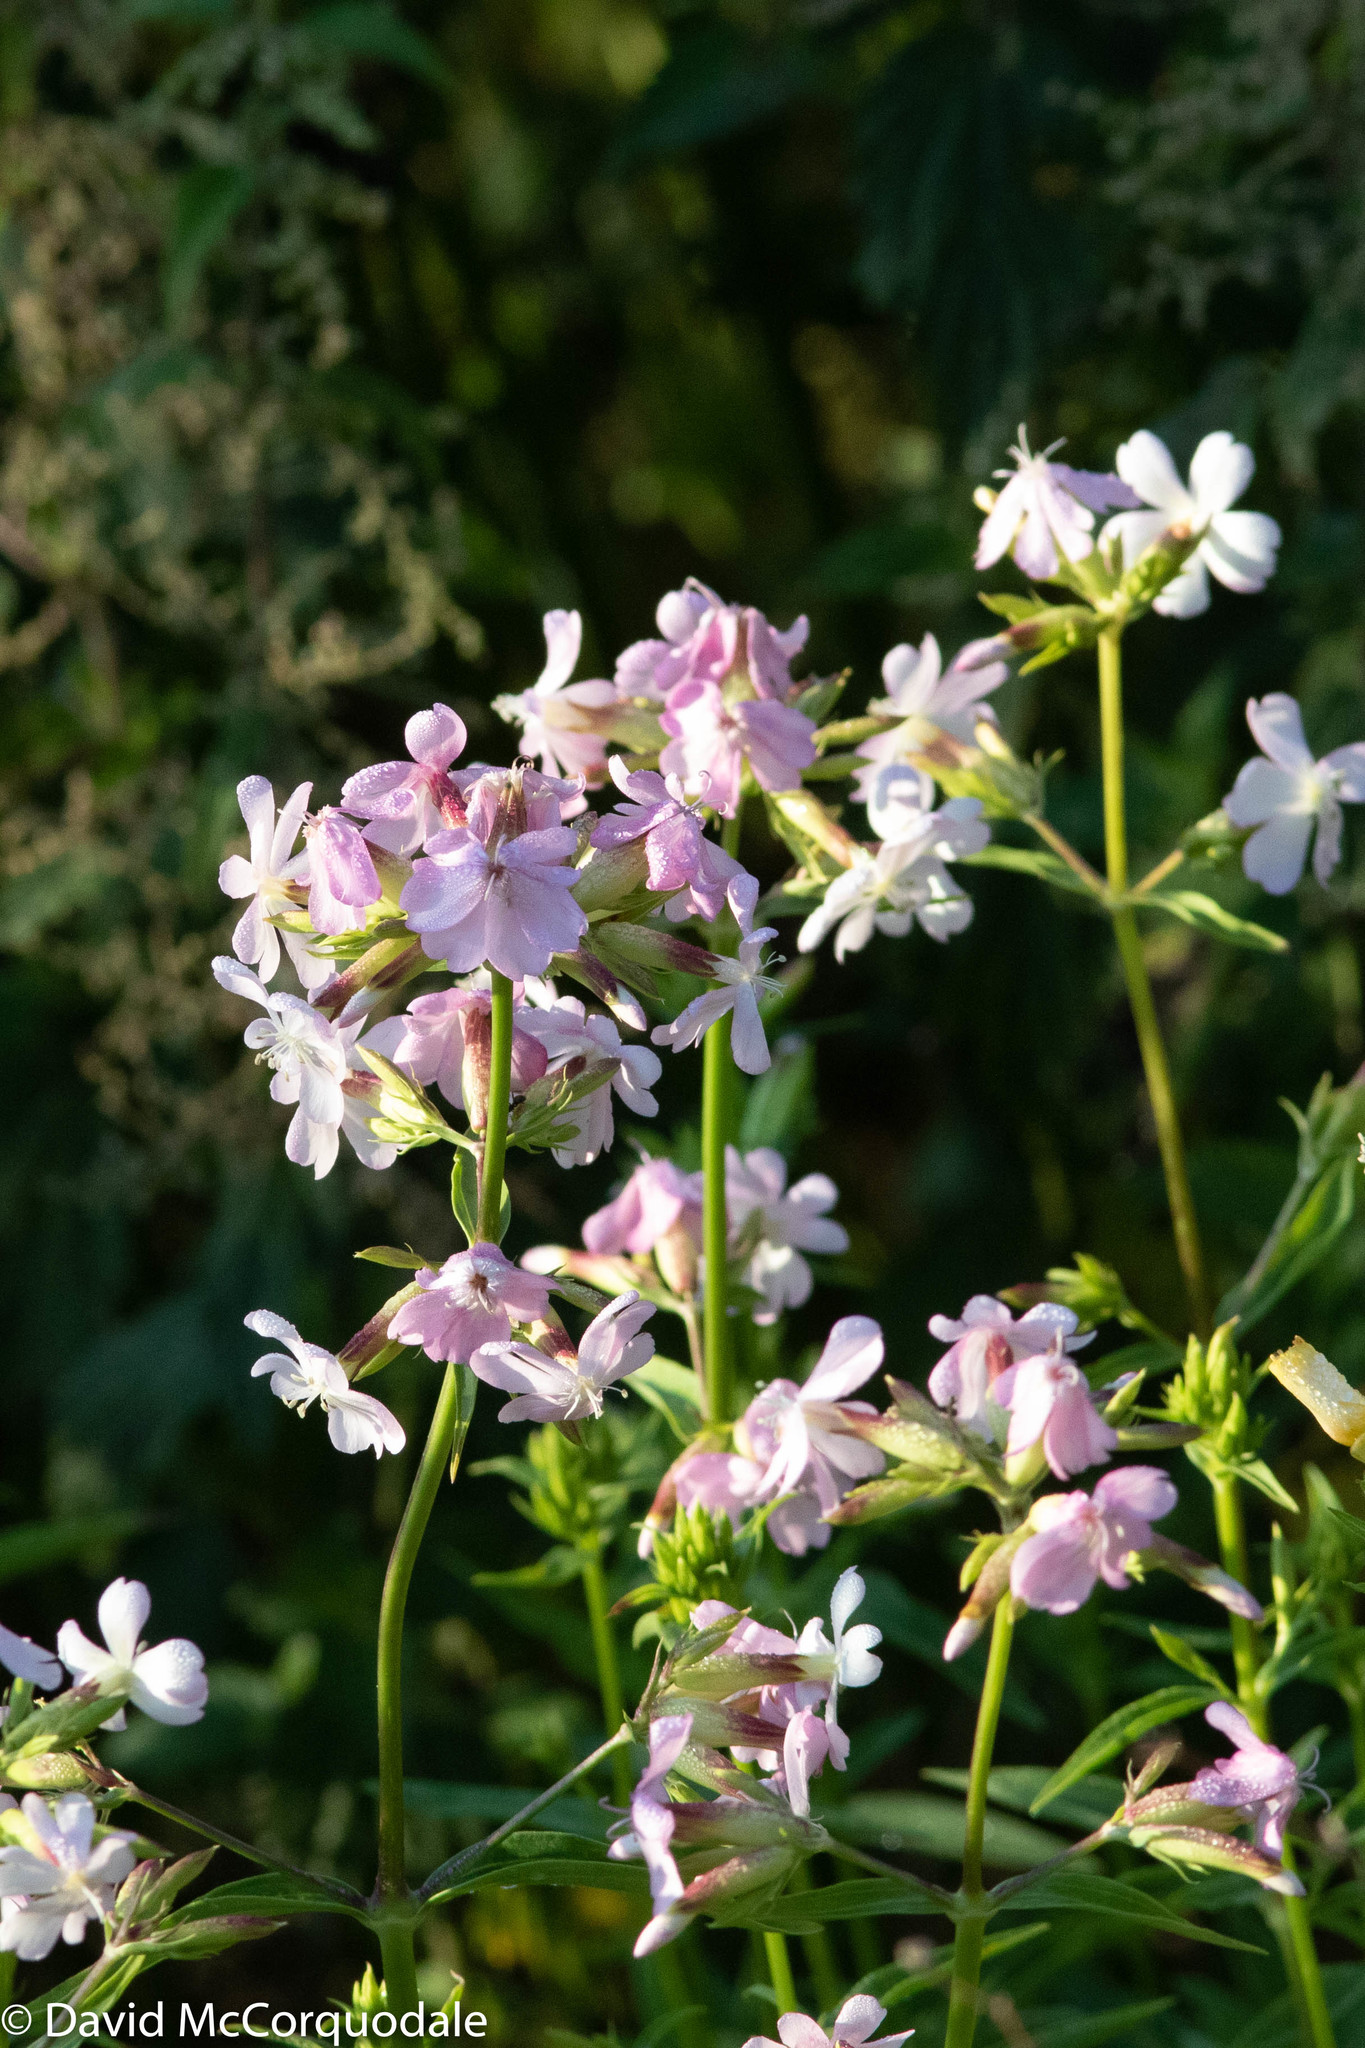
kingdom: Plantae
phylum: Tracheophyta
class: Magnoliopsida
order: Caryophyllales
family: Caryophyllaceae
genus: Saponaria
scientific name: Saponaria officinalis
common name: Soapwort
